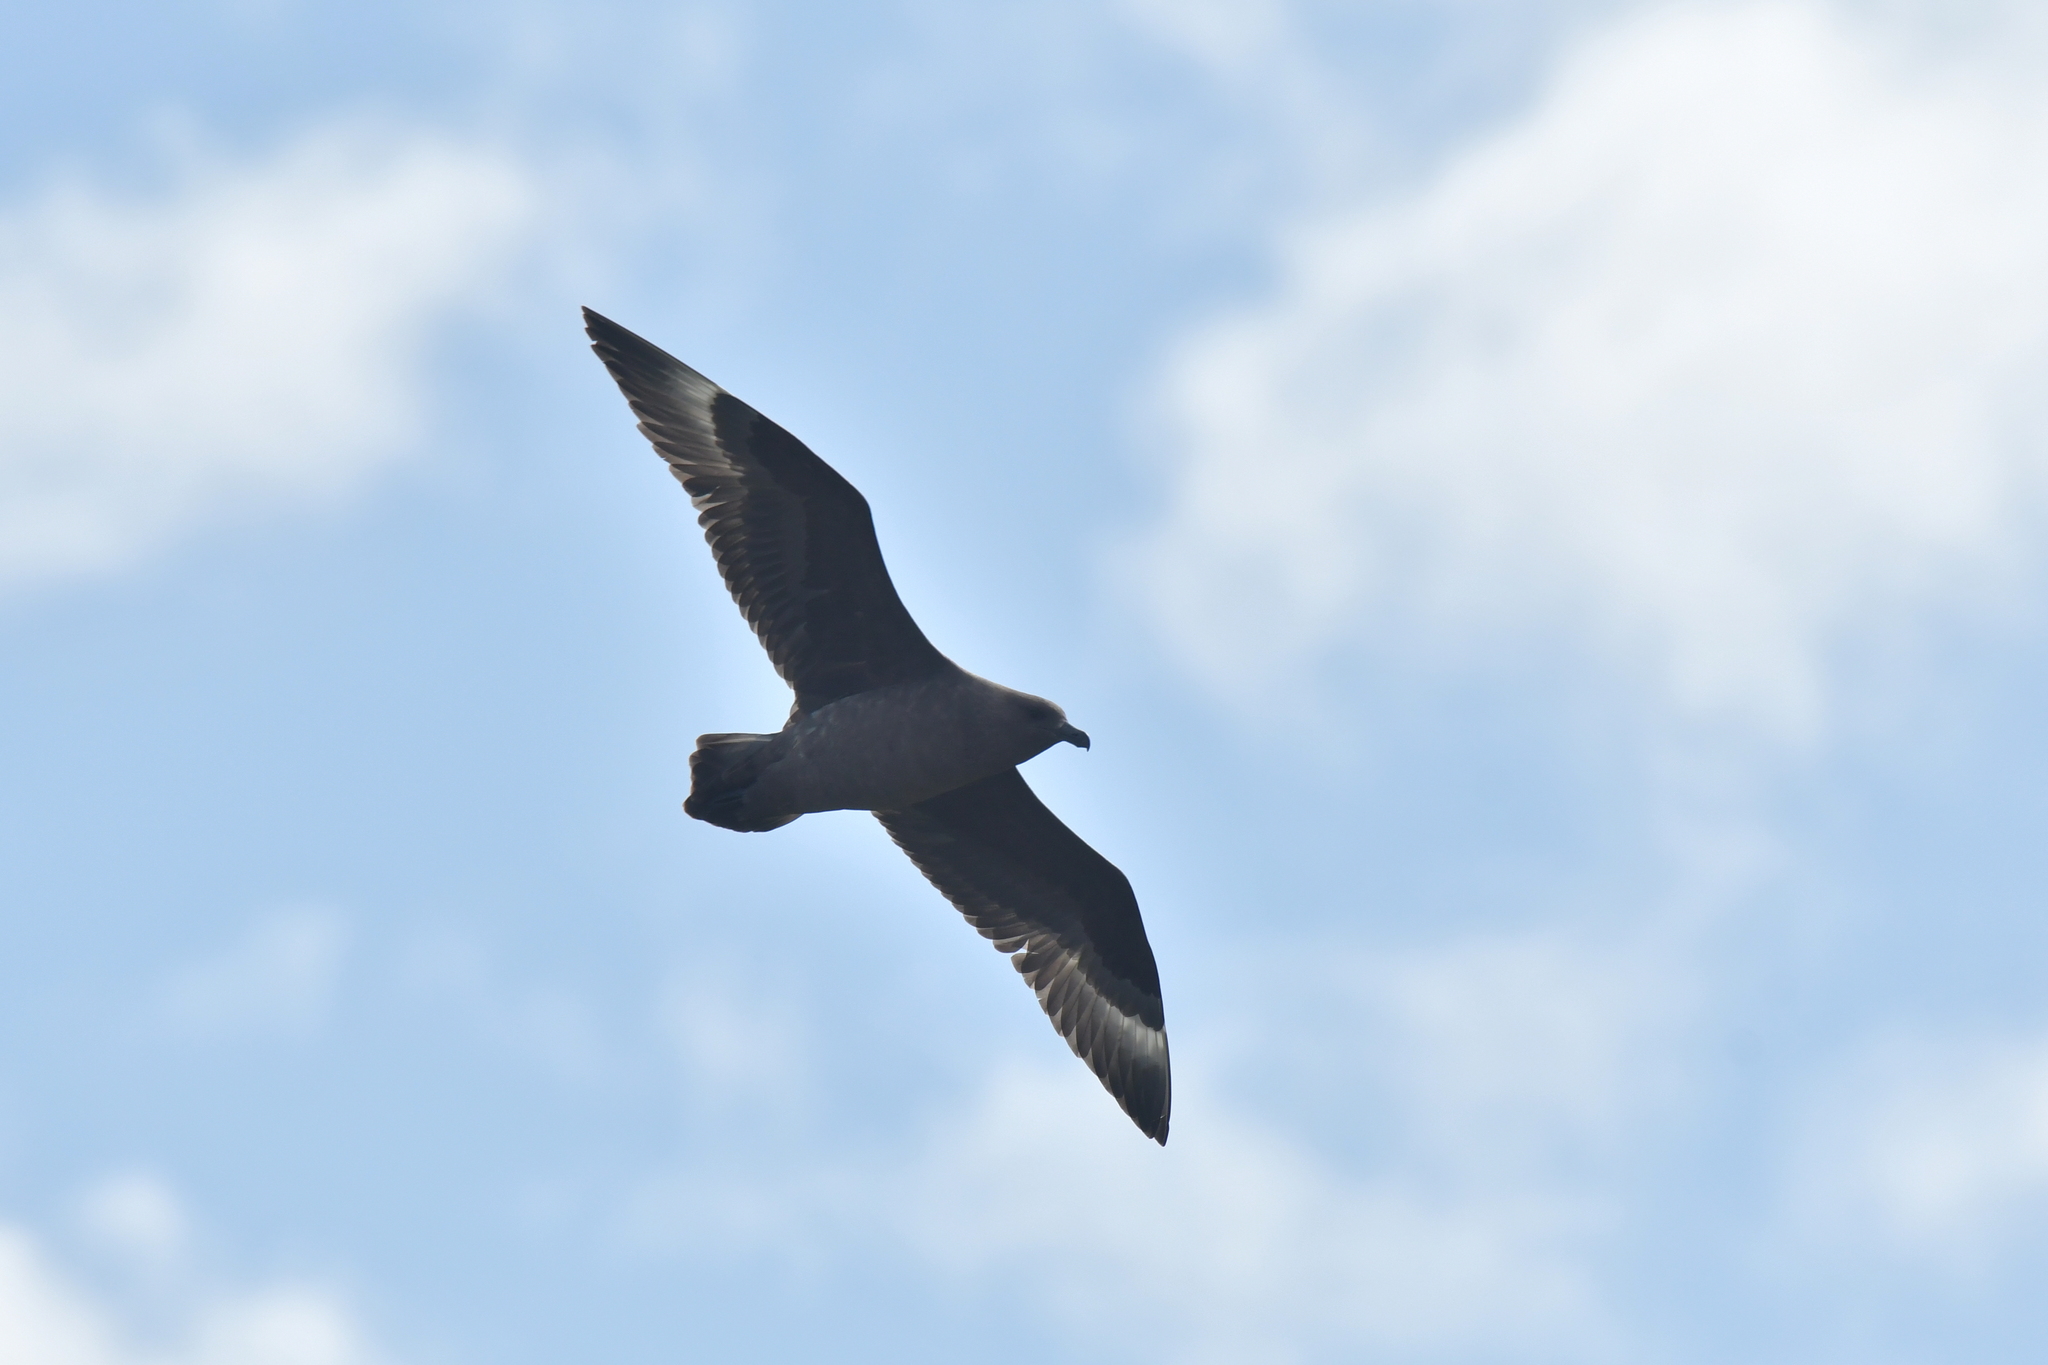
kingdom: Animalia
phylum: Chordata
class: Aves
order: Charadriiformes
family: Stercorariidae
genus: Stercorarius
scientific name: Stercorarius antarcticus
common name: Brown skua
